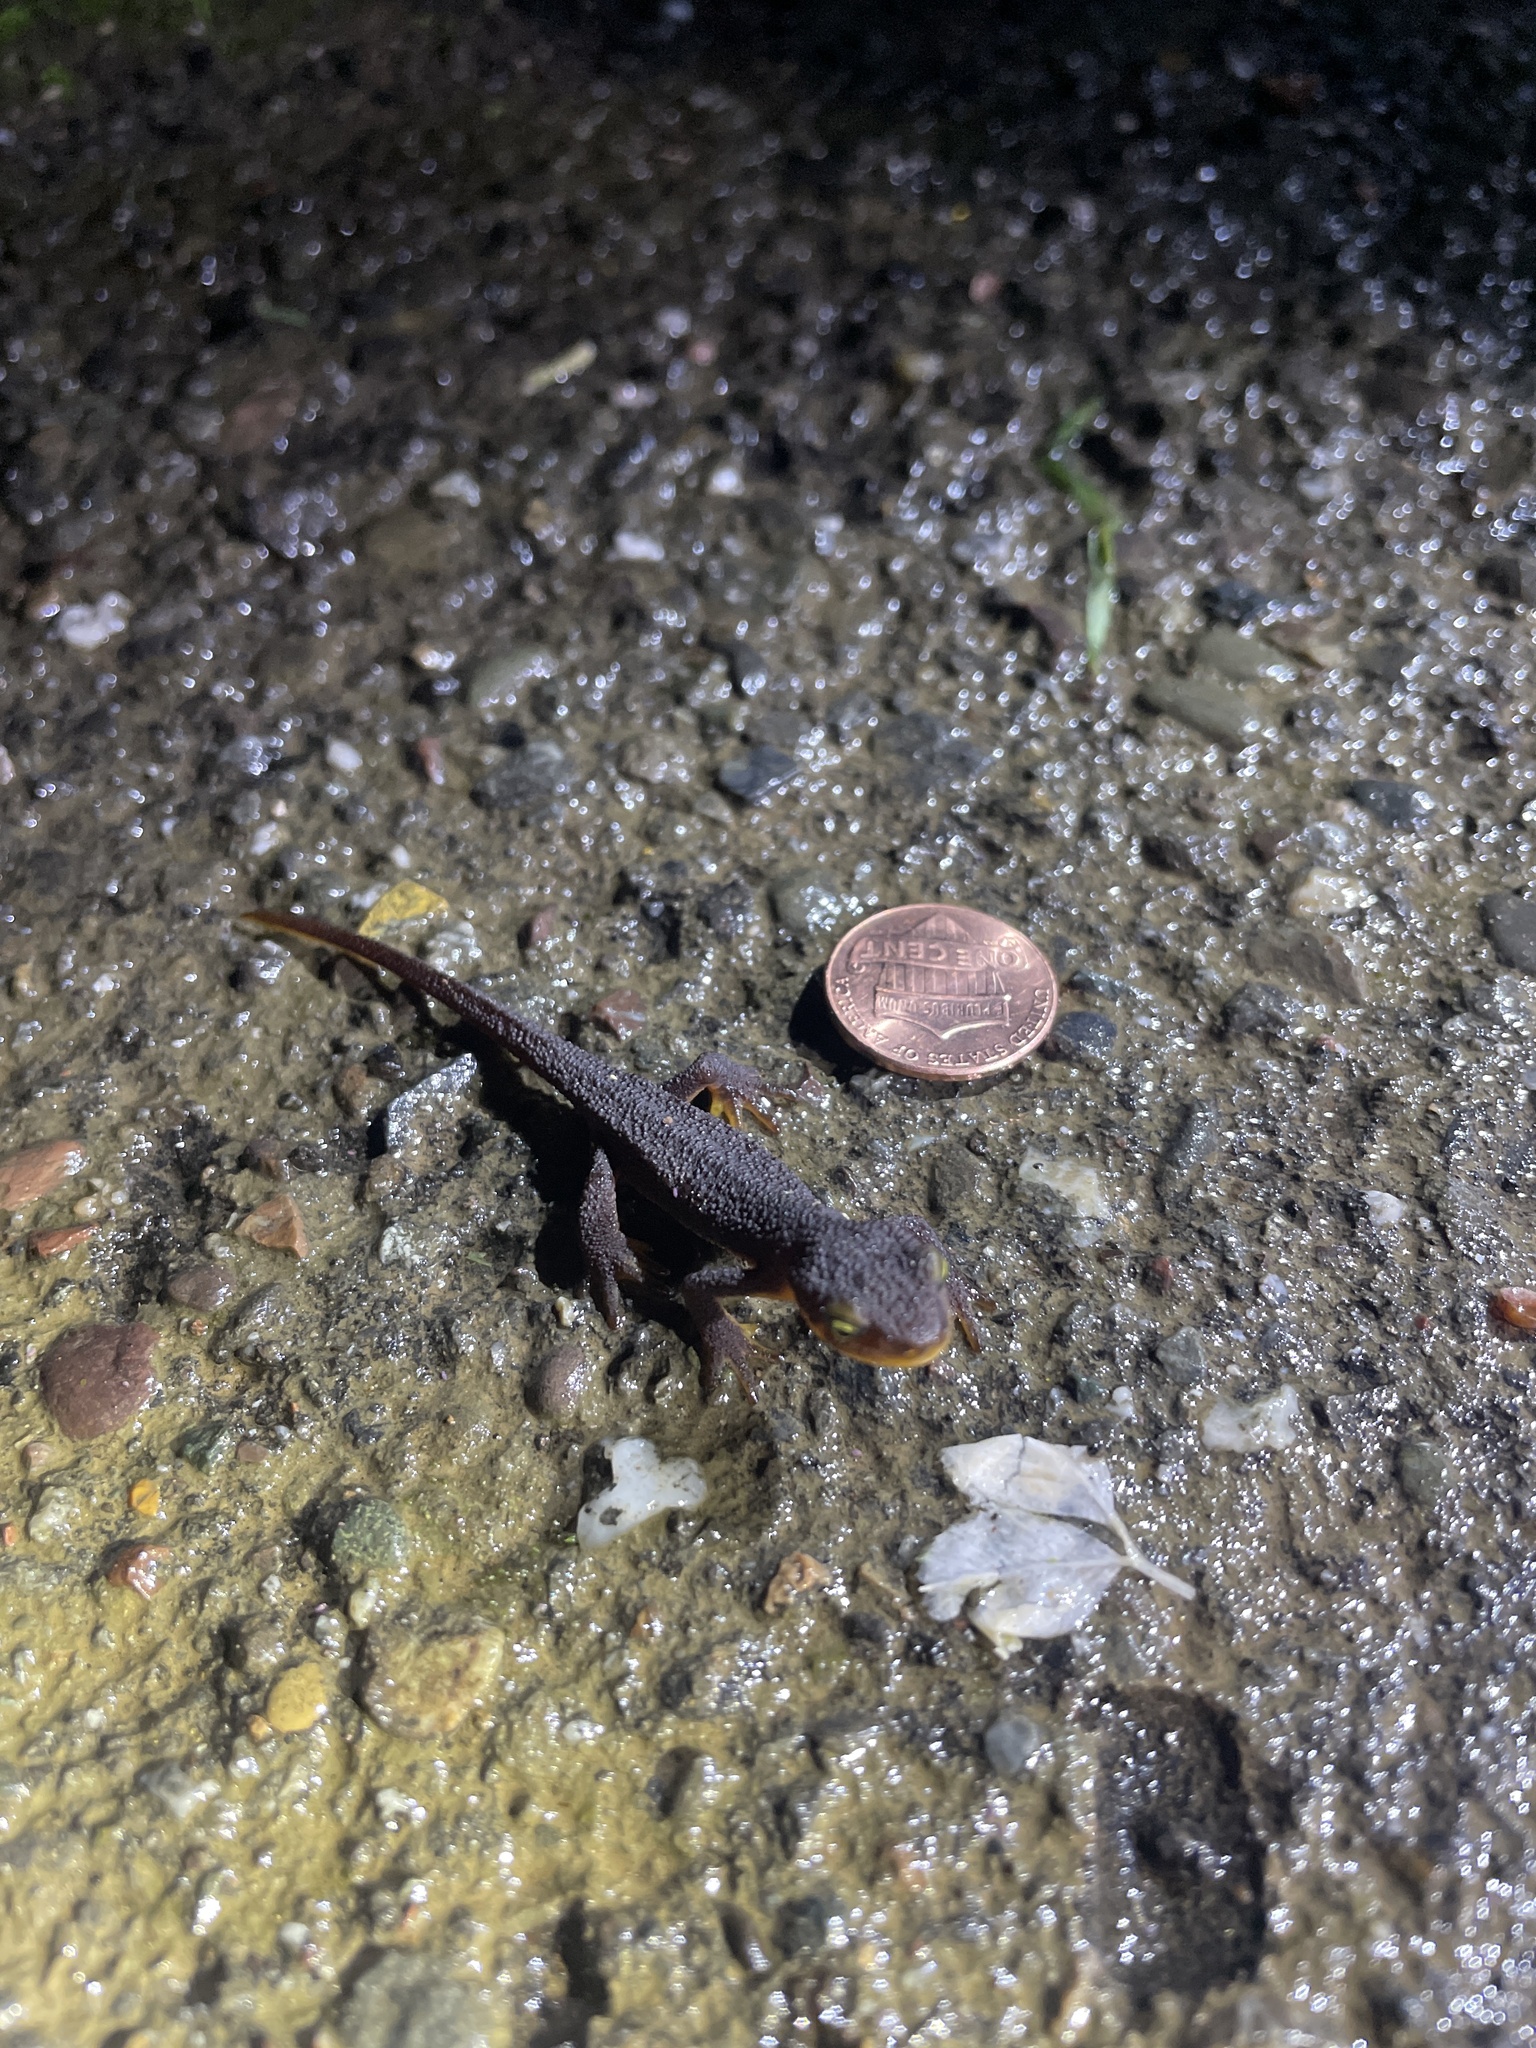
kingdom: Animalia
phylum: Chordata
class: Amphibia
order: Caudata
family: Salamandridae
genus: Taricha
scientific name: Taricha torosa
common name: California newt
